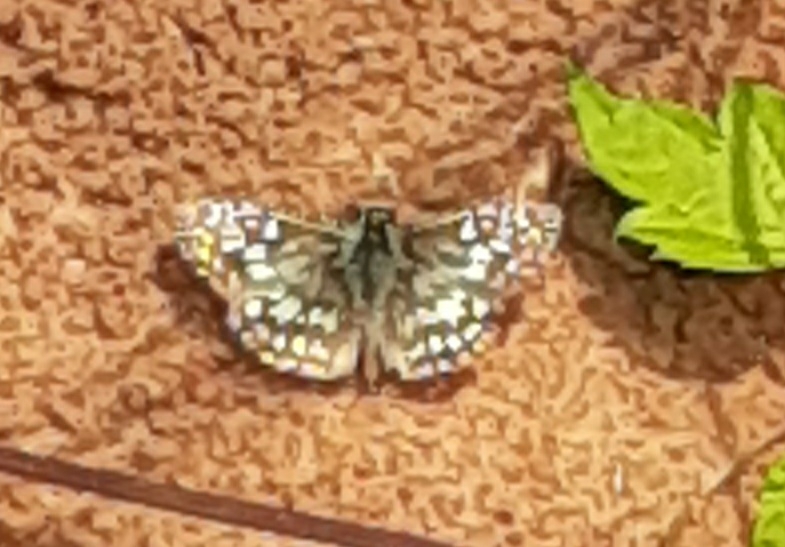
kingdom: Animalia
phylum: Arthropoda
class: Insecta
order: Lepidoptera
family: Hesperiidae
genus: Pyrgus
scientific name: Pyrgus oileus
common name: Tropical checkered-skipper
